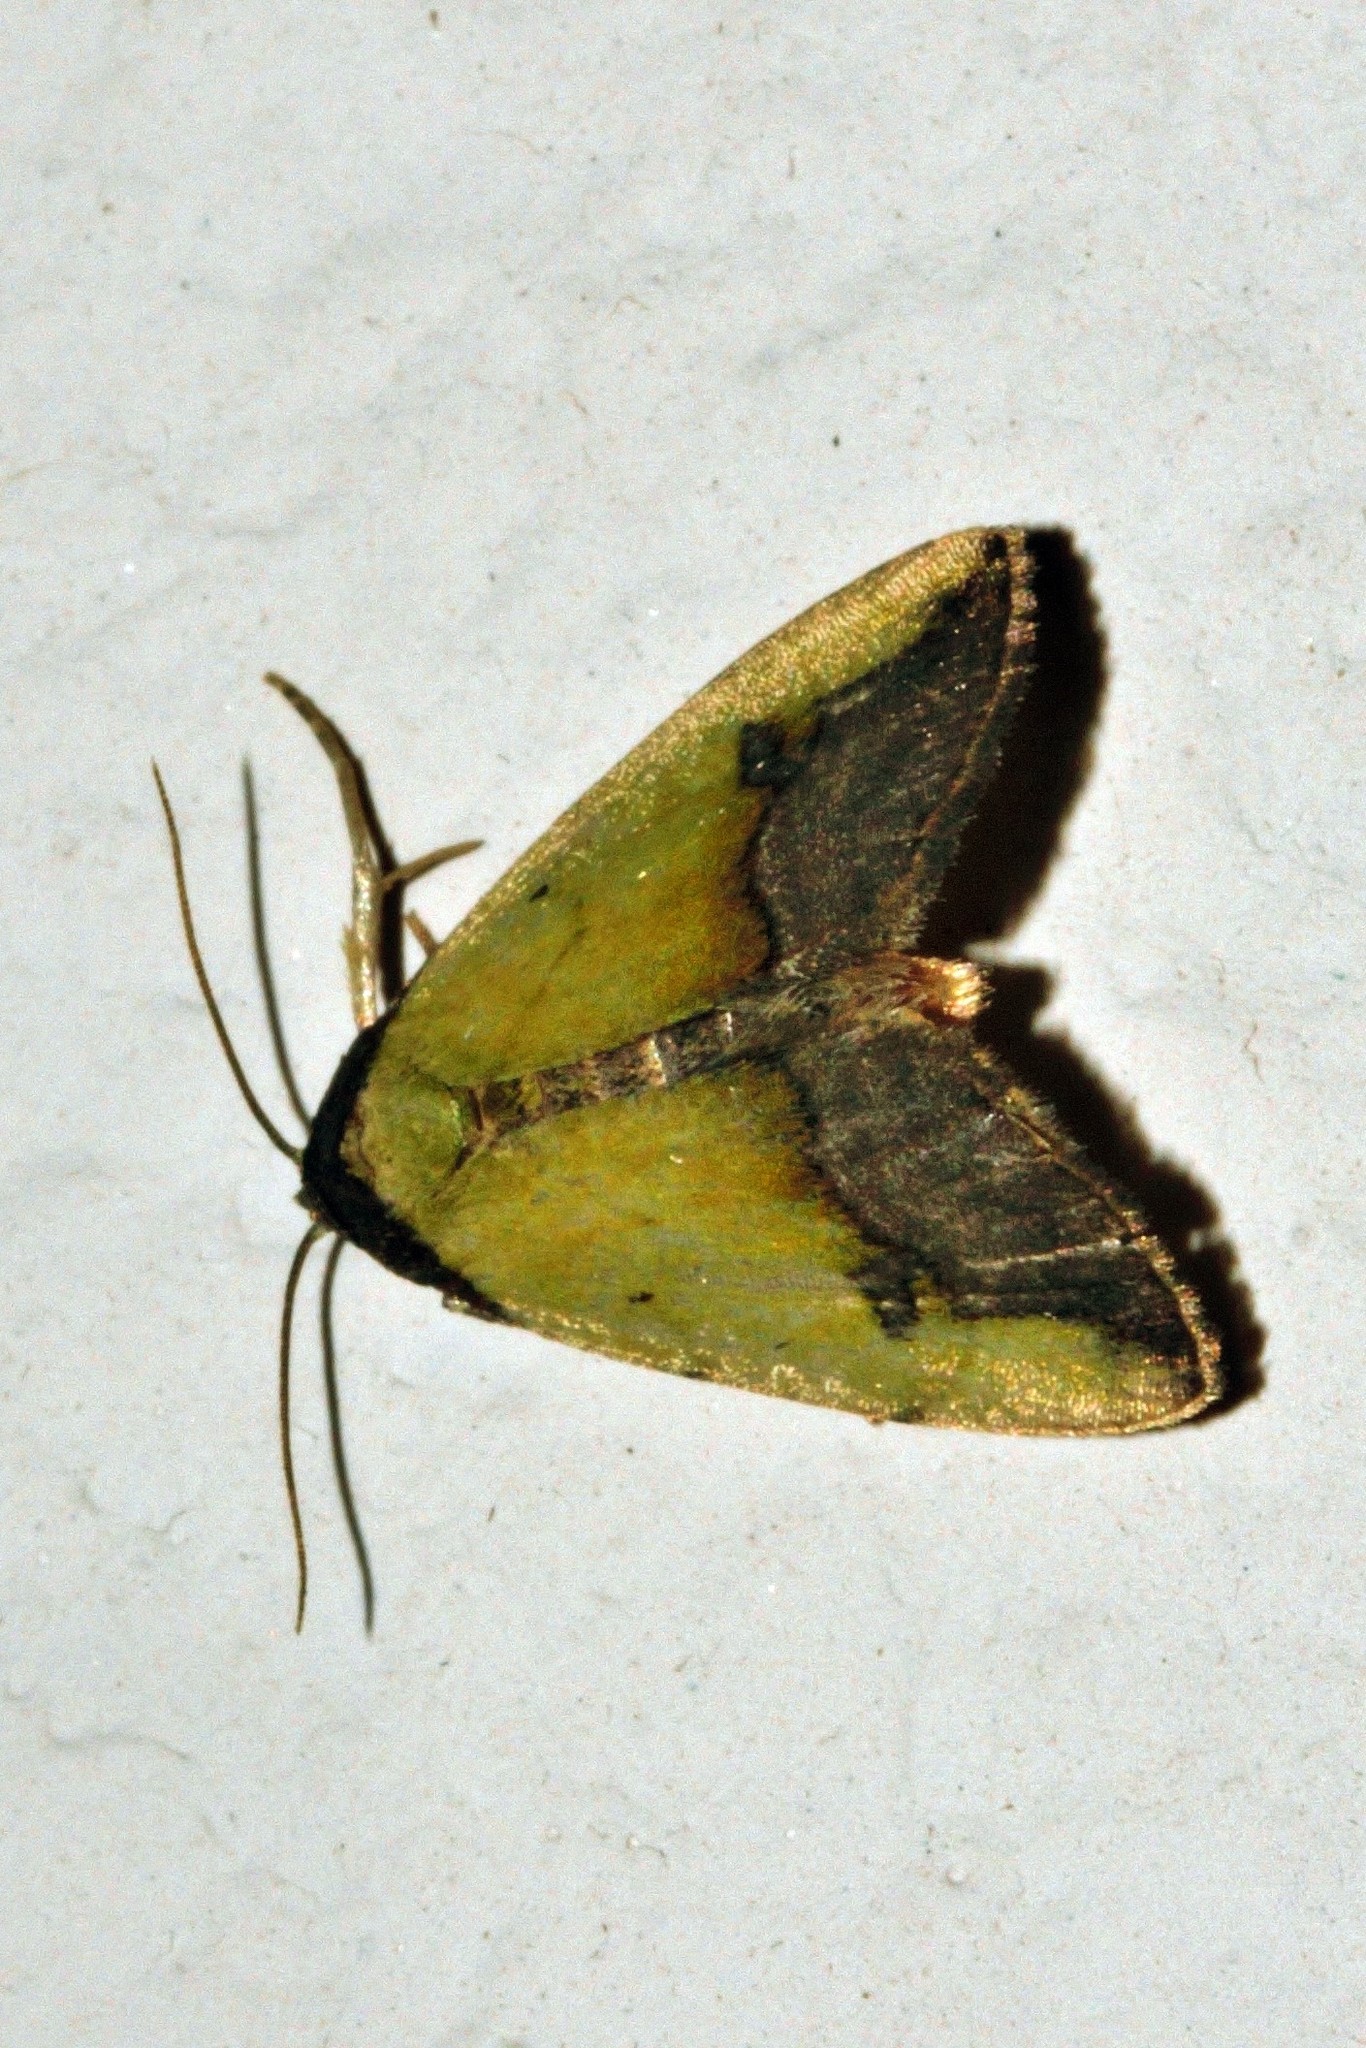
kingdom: Animalia
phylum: Arthropoda
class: Insecta
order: Lepidoptera
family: Noctuidae
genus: Ozarba
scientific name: Ozarba nigroviridis
